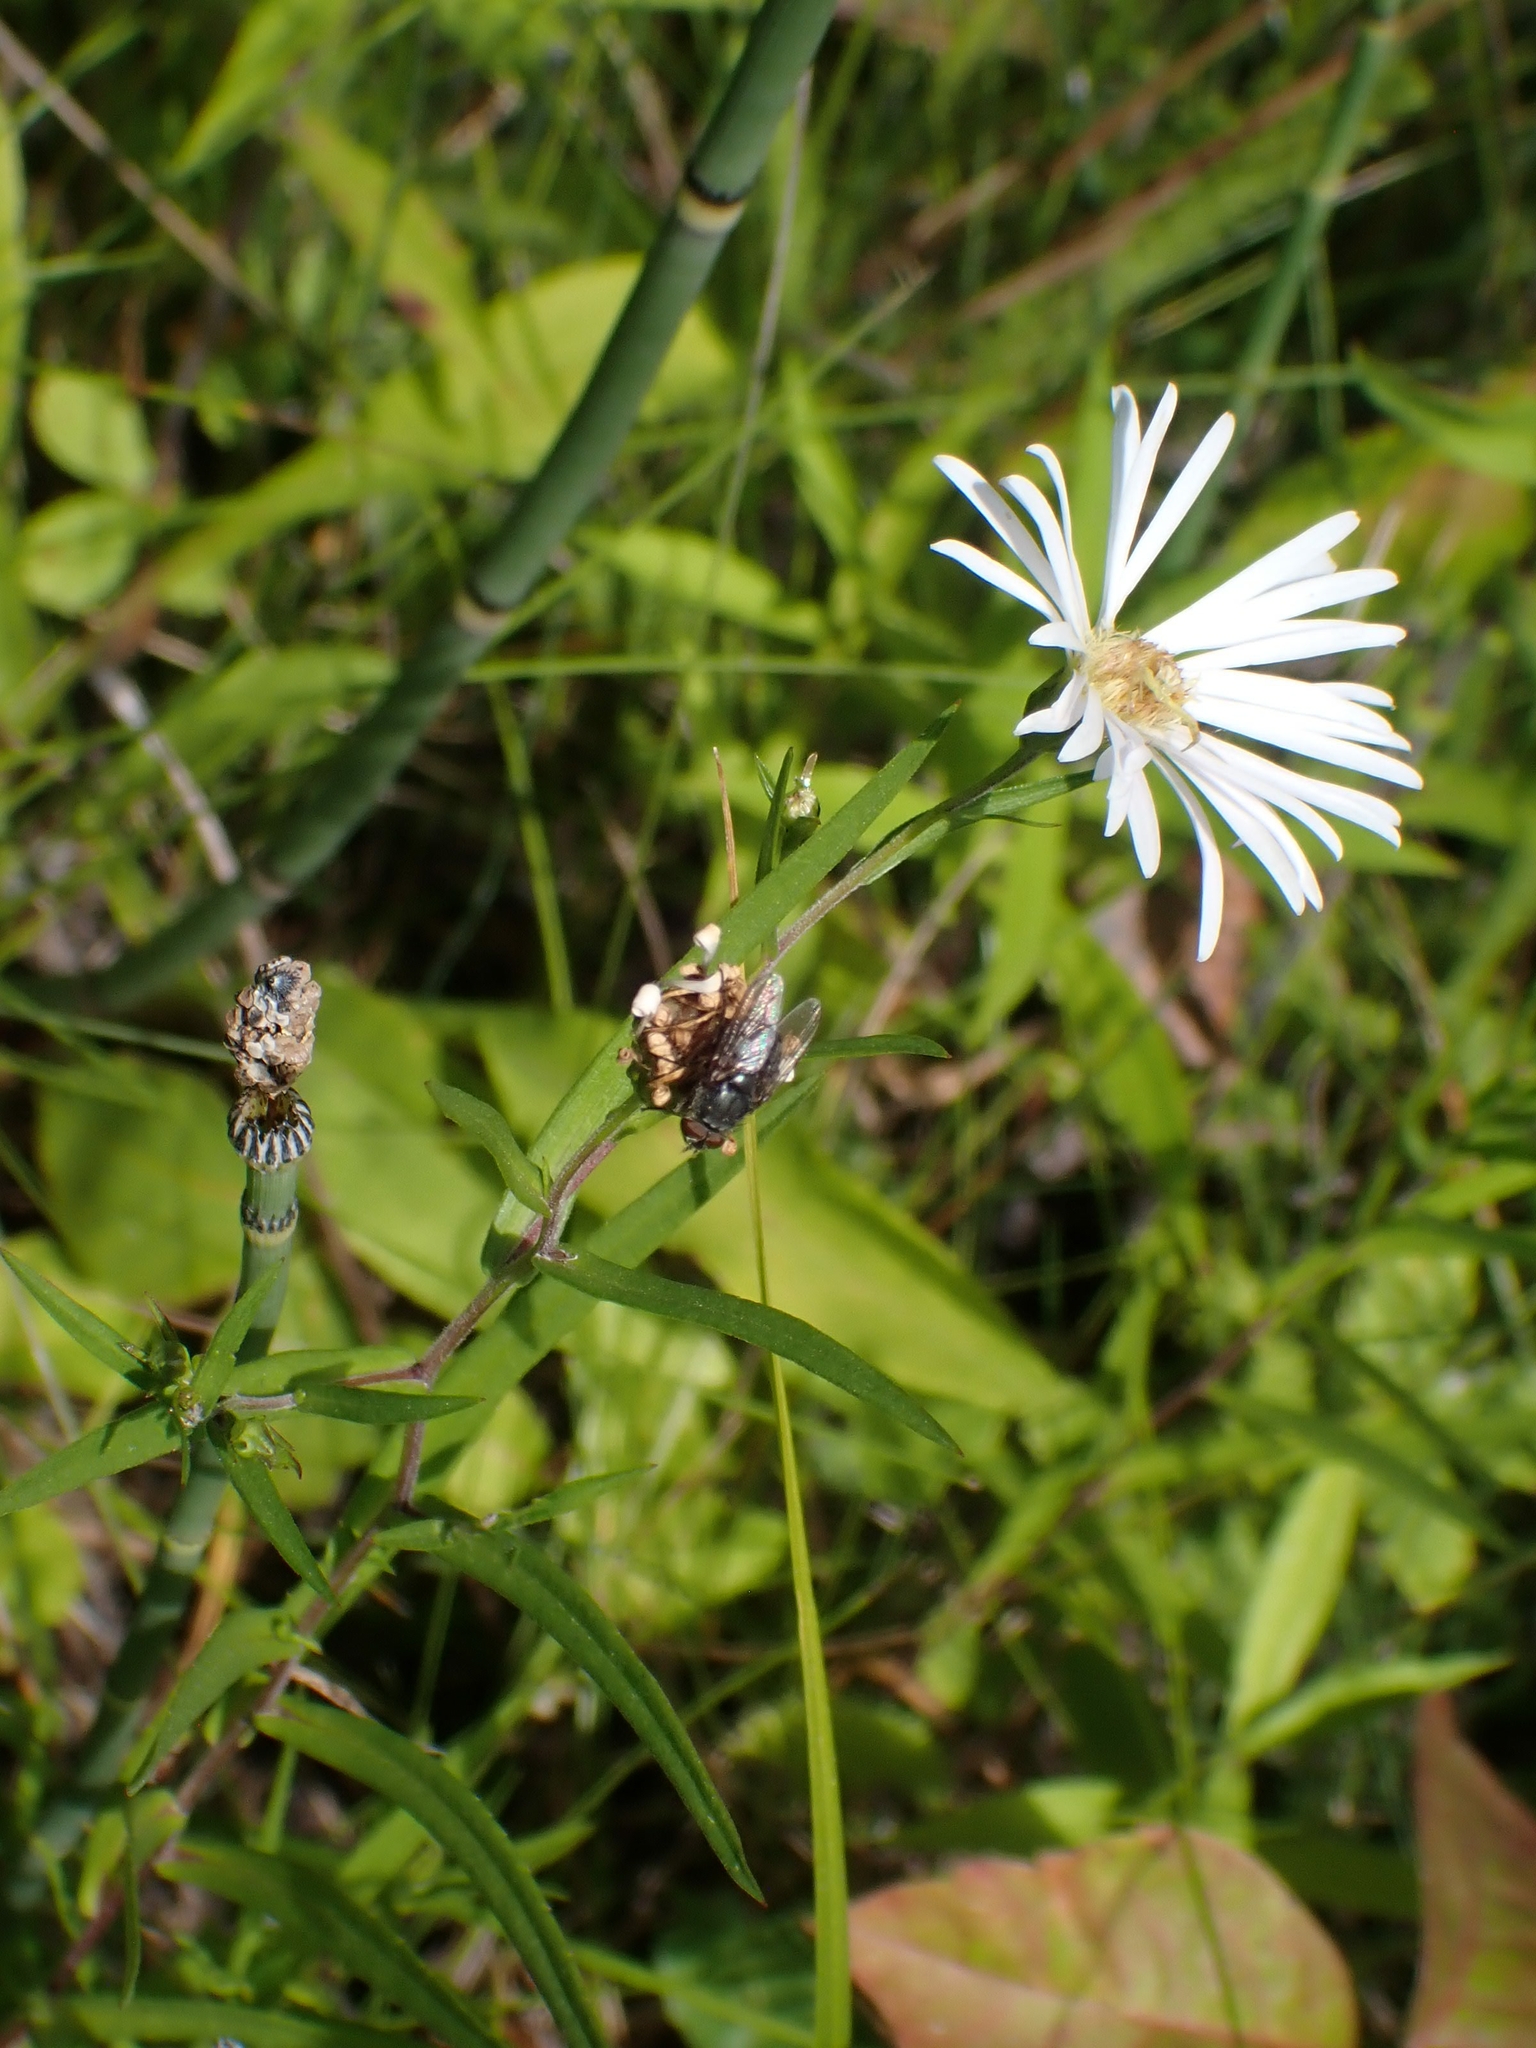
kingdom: Plantae
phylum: Tracheophyta
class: Magnoliopsida
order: Asterales
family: Asteraceae
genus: Symphyotrichum
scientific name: Symphyotrichum boreale
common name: Northern bog aster
